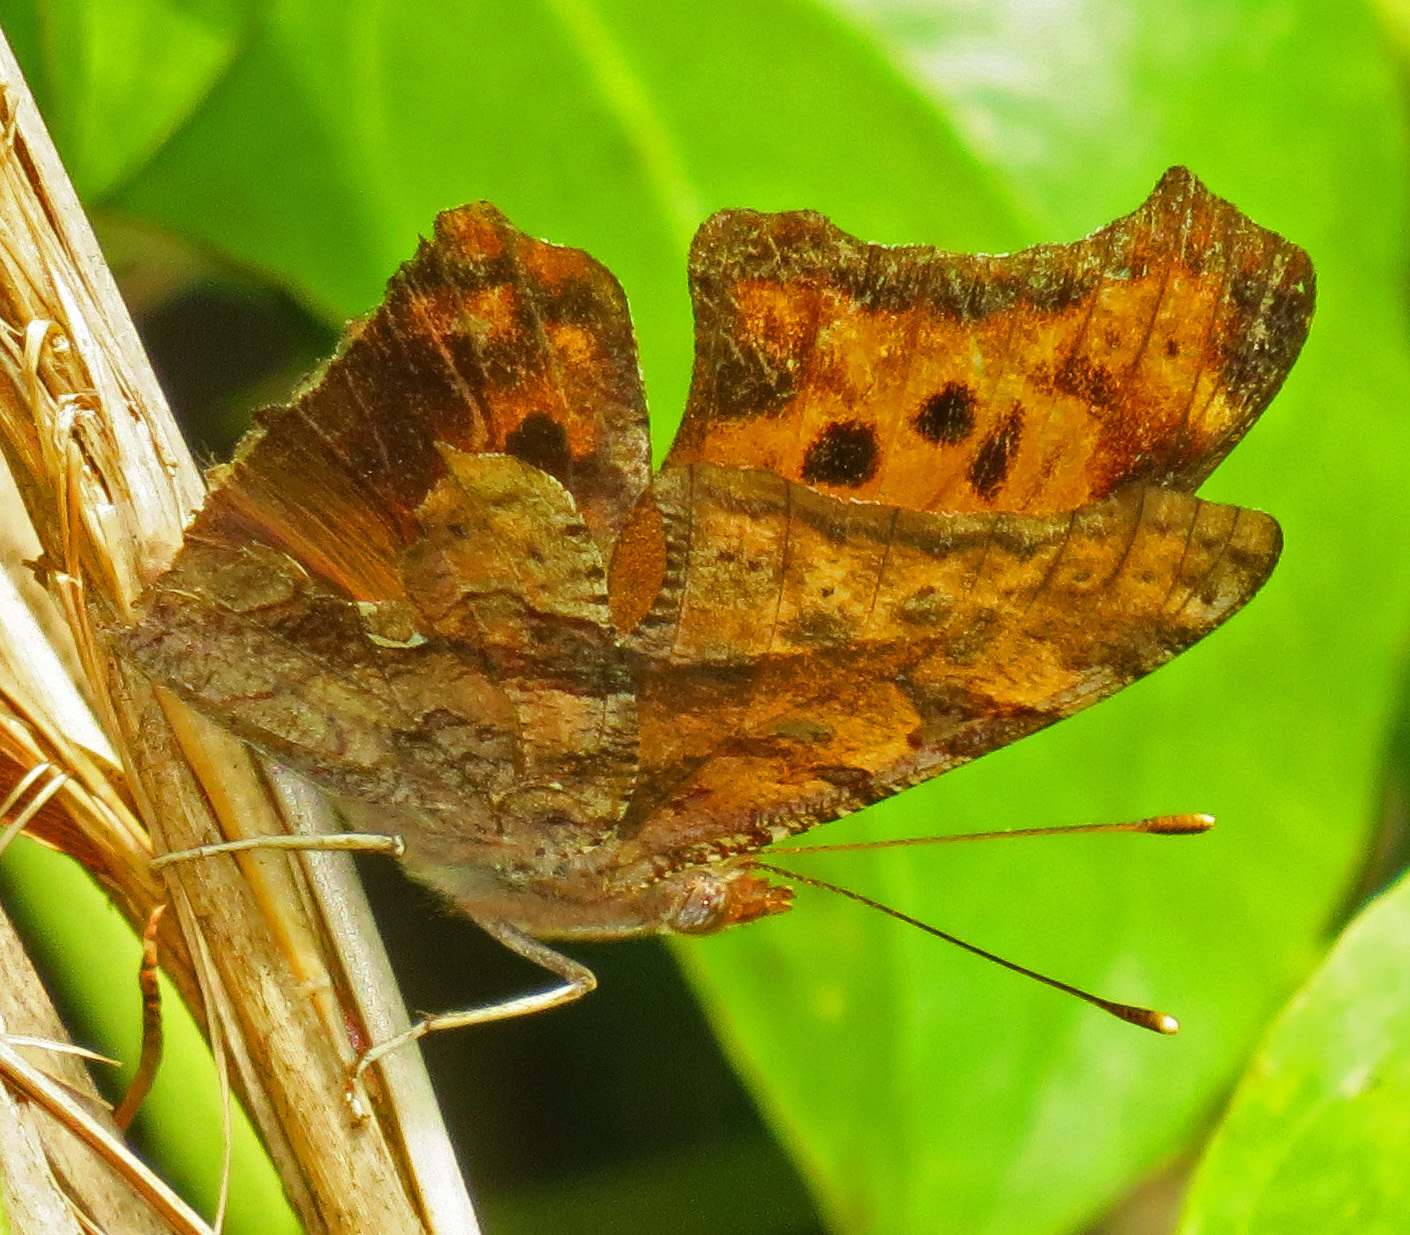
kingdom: Animalia
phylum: Arthropoda
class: Insecta
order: Lepidoptera
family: Nymphalidae
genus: Polygonia
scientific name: Polygonia interrogationis
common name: Question mark
